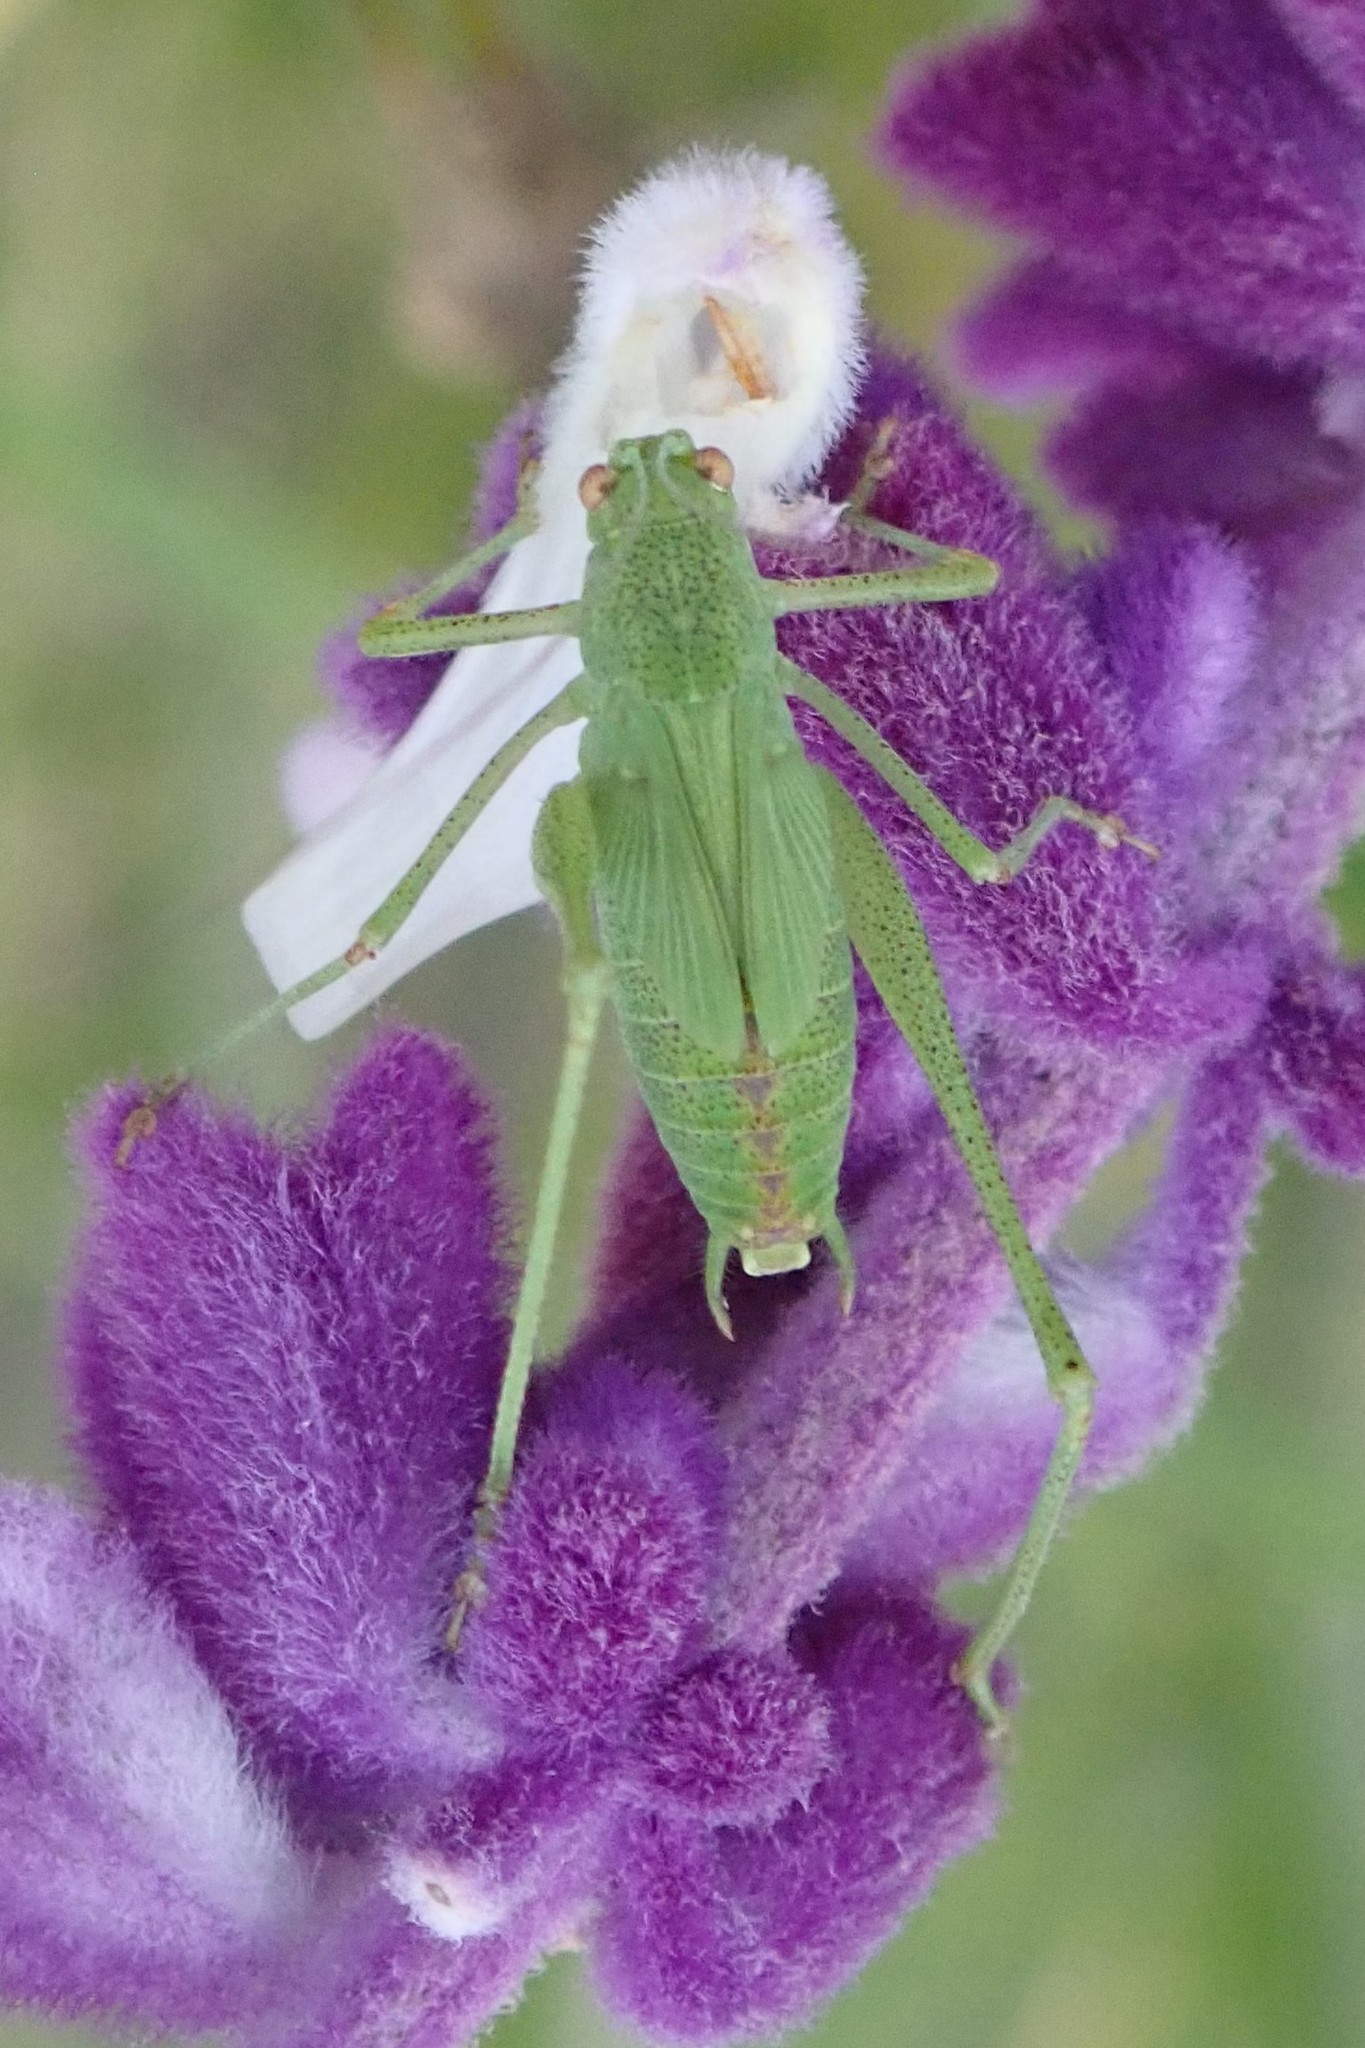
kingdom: Animalia
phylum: Arthropoda
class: Insecta
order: Orthoptera
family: Tettigoniidae
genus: Phaneroptera
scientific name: Phaneroptera nana
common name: Southern sickle bush-cricket
